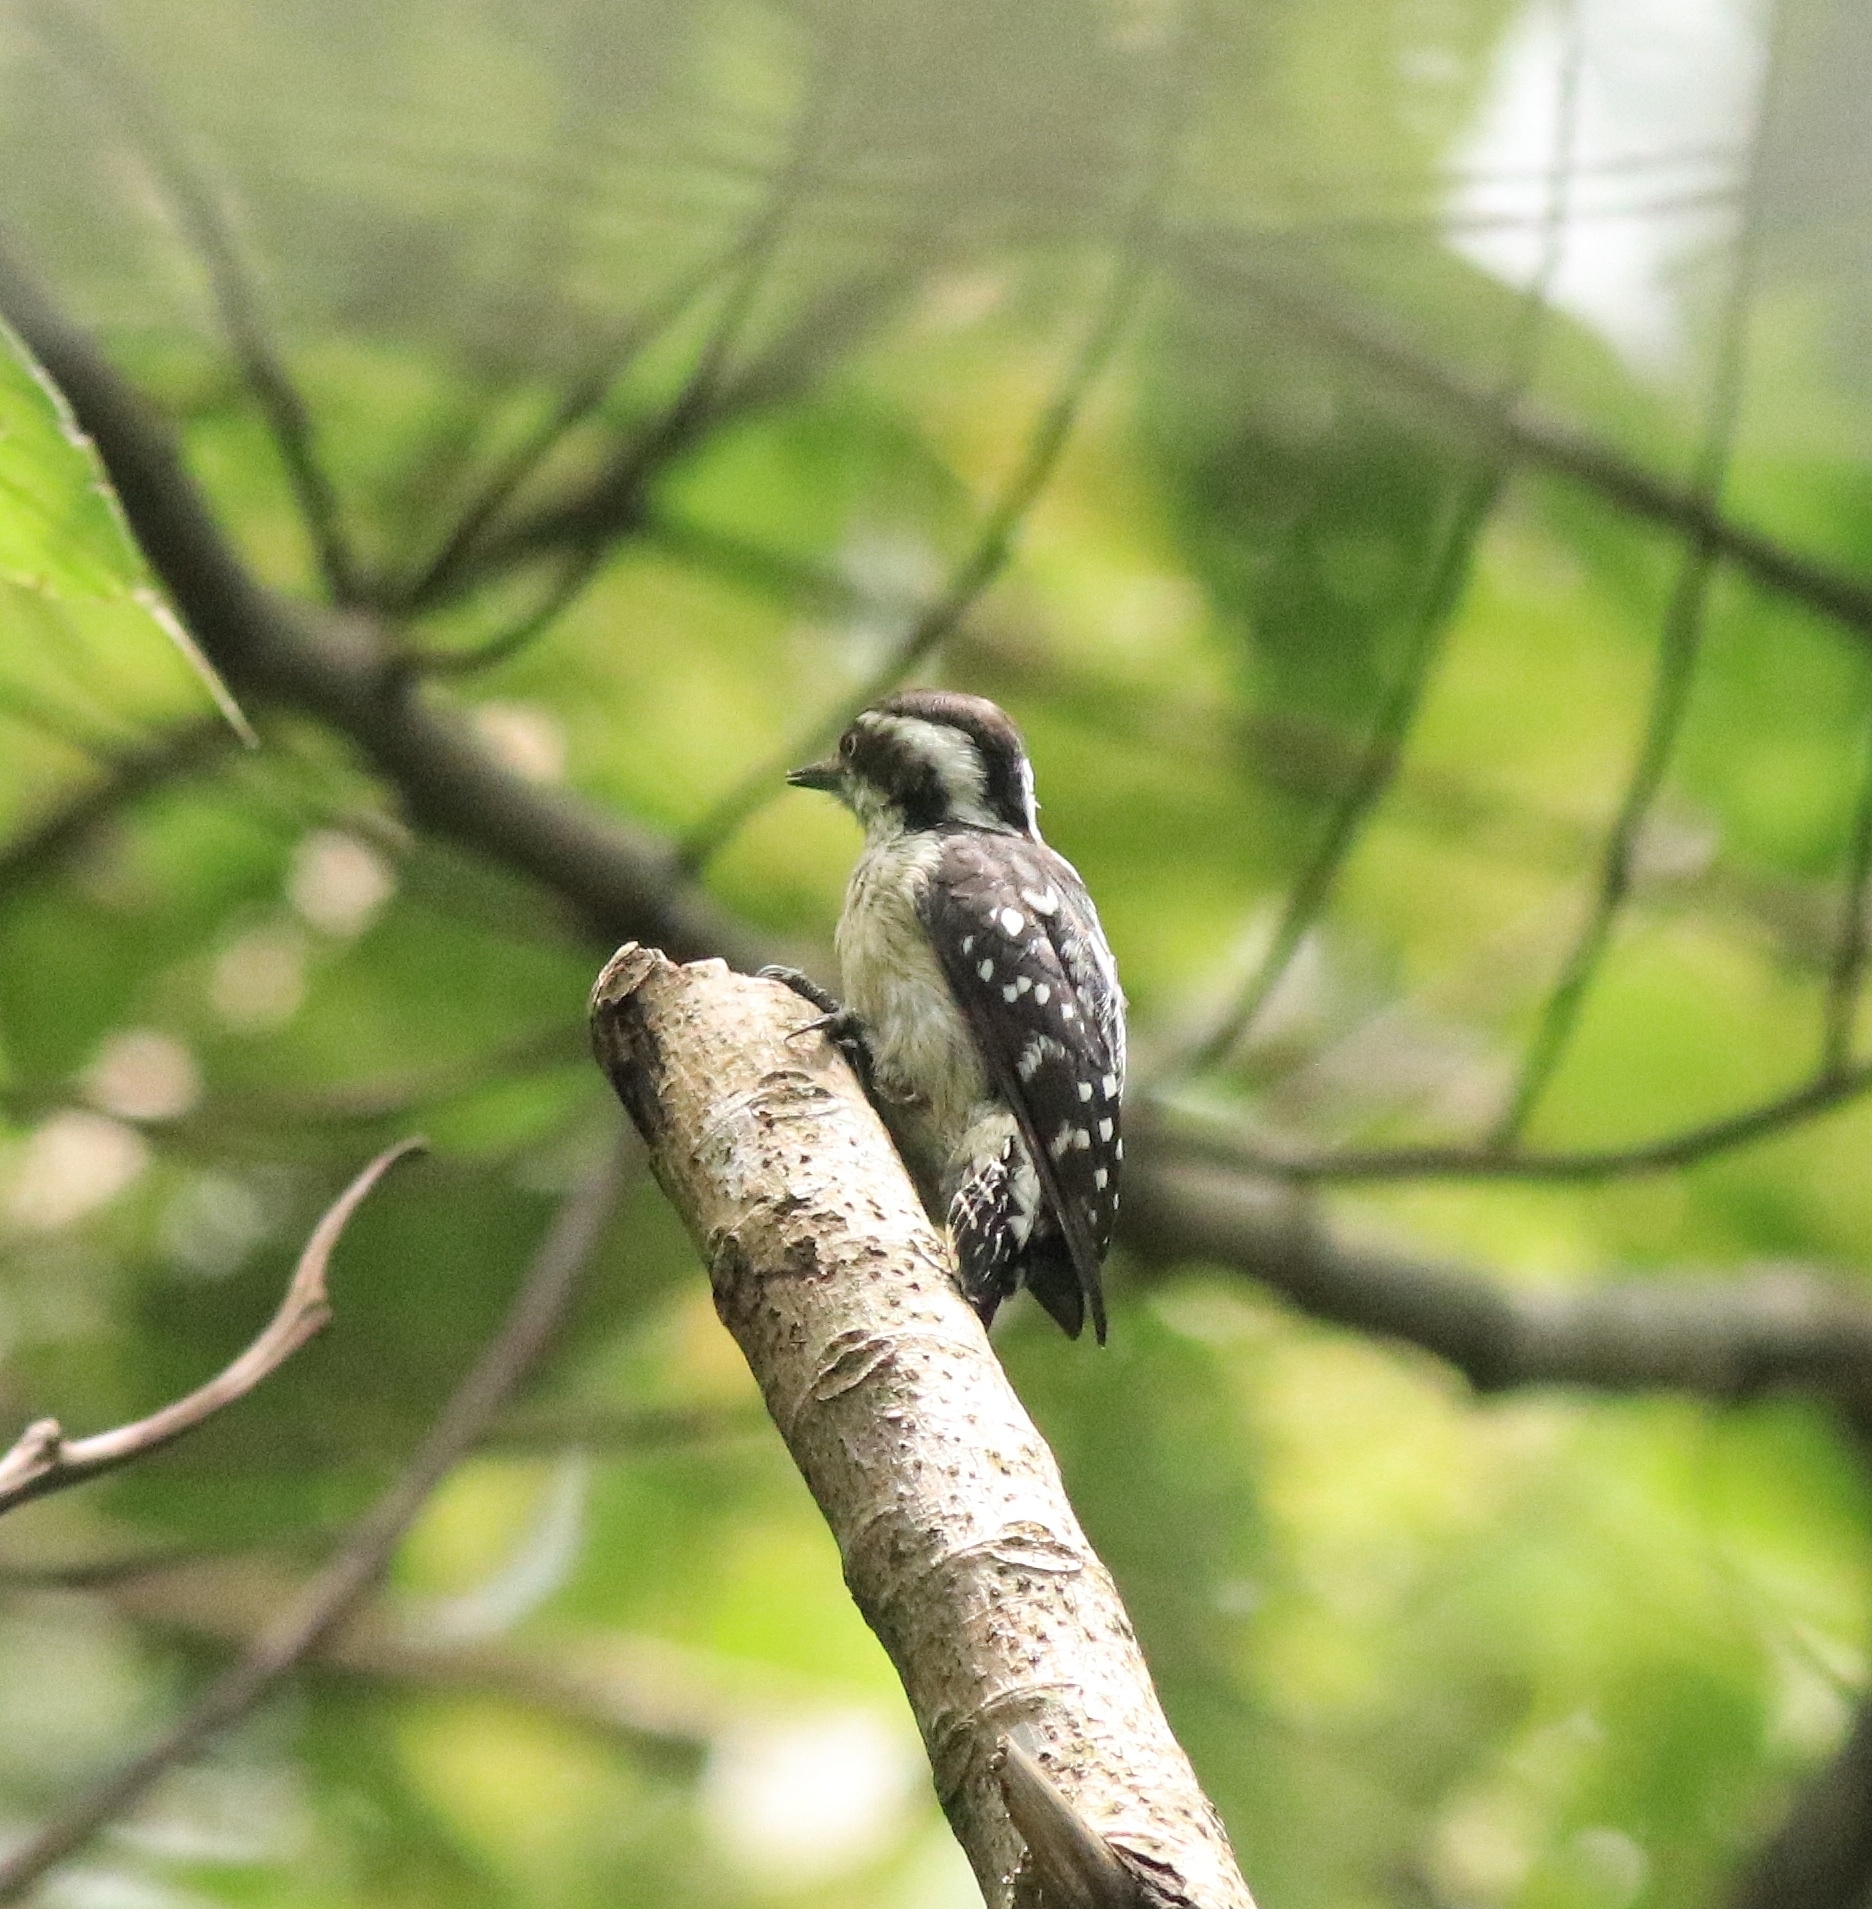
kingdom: Animalia
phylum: Chordata
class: Aves
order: Piciformes
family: Picidae
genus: Yungipicus
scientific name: Yungipicus nanus
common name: Brown-capped pygmy woodpecker
